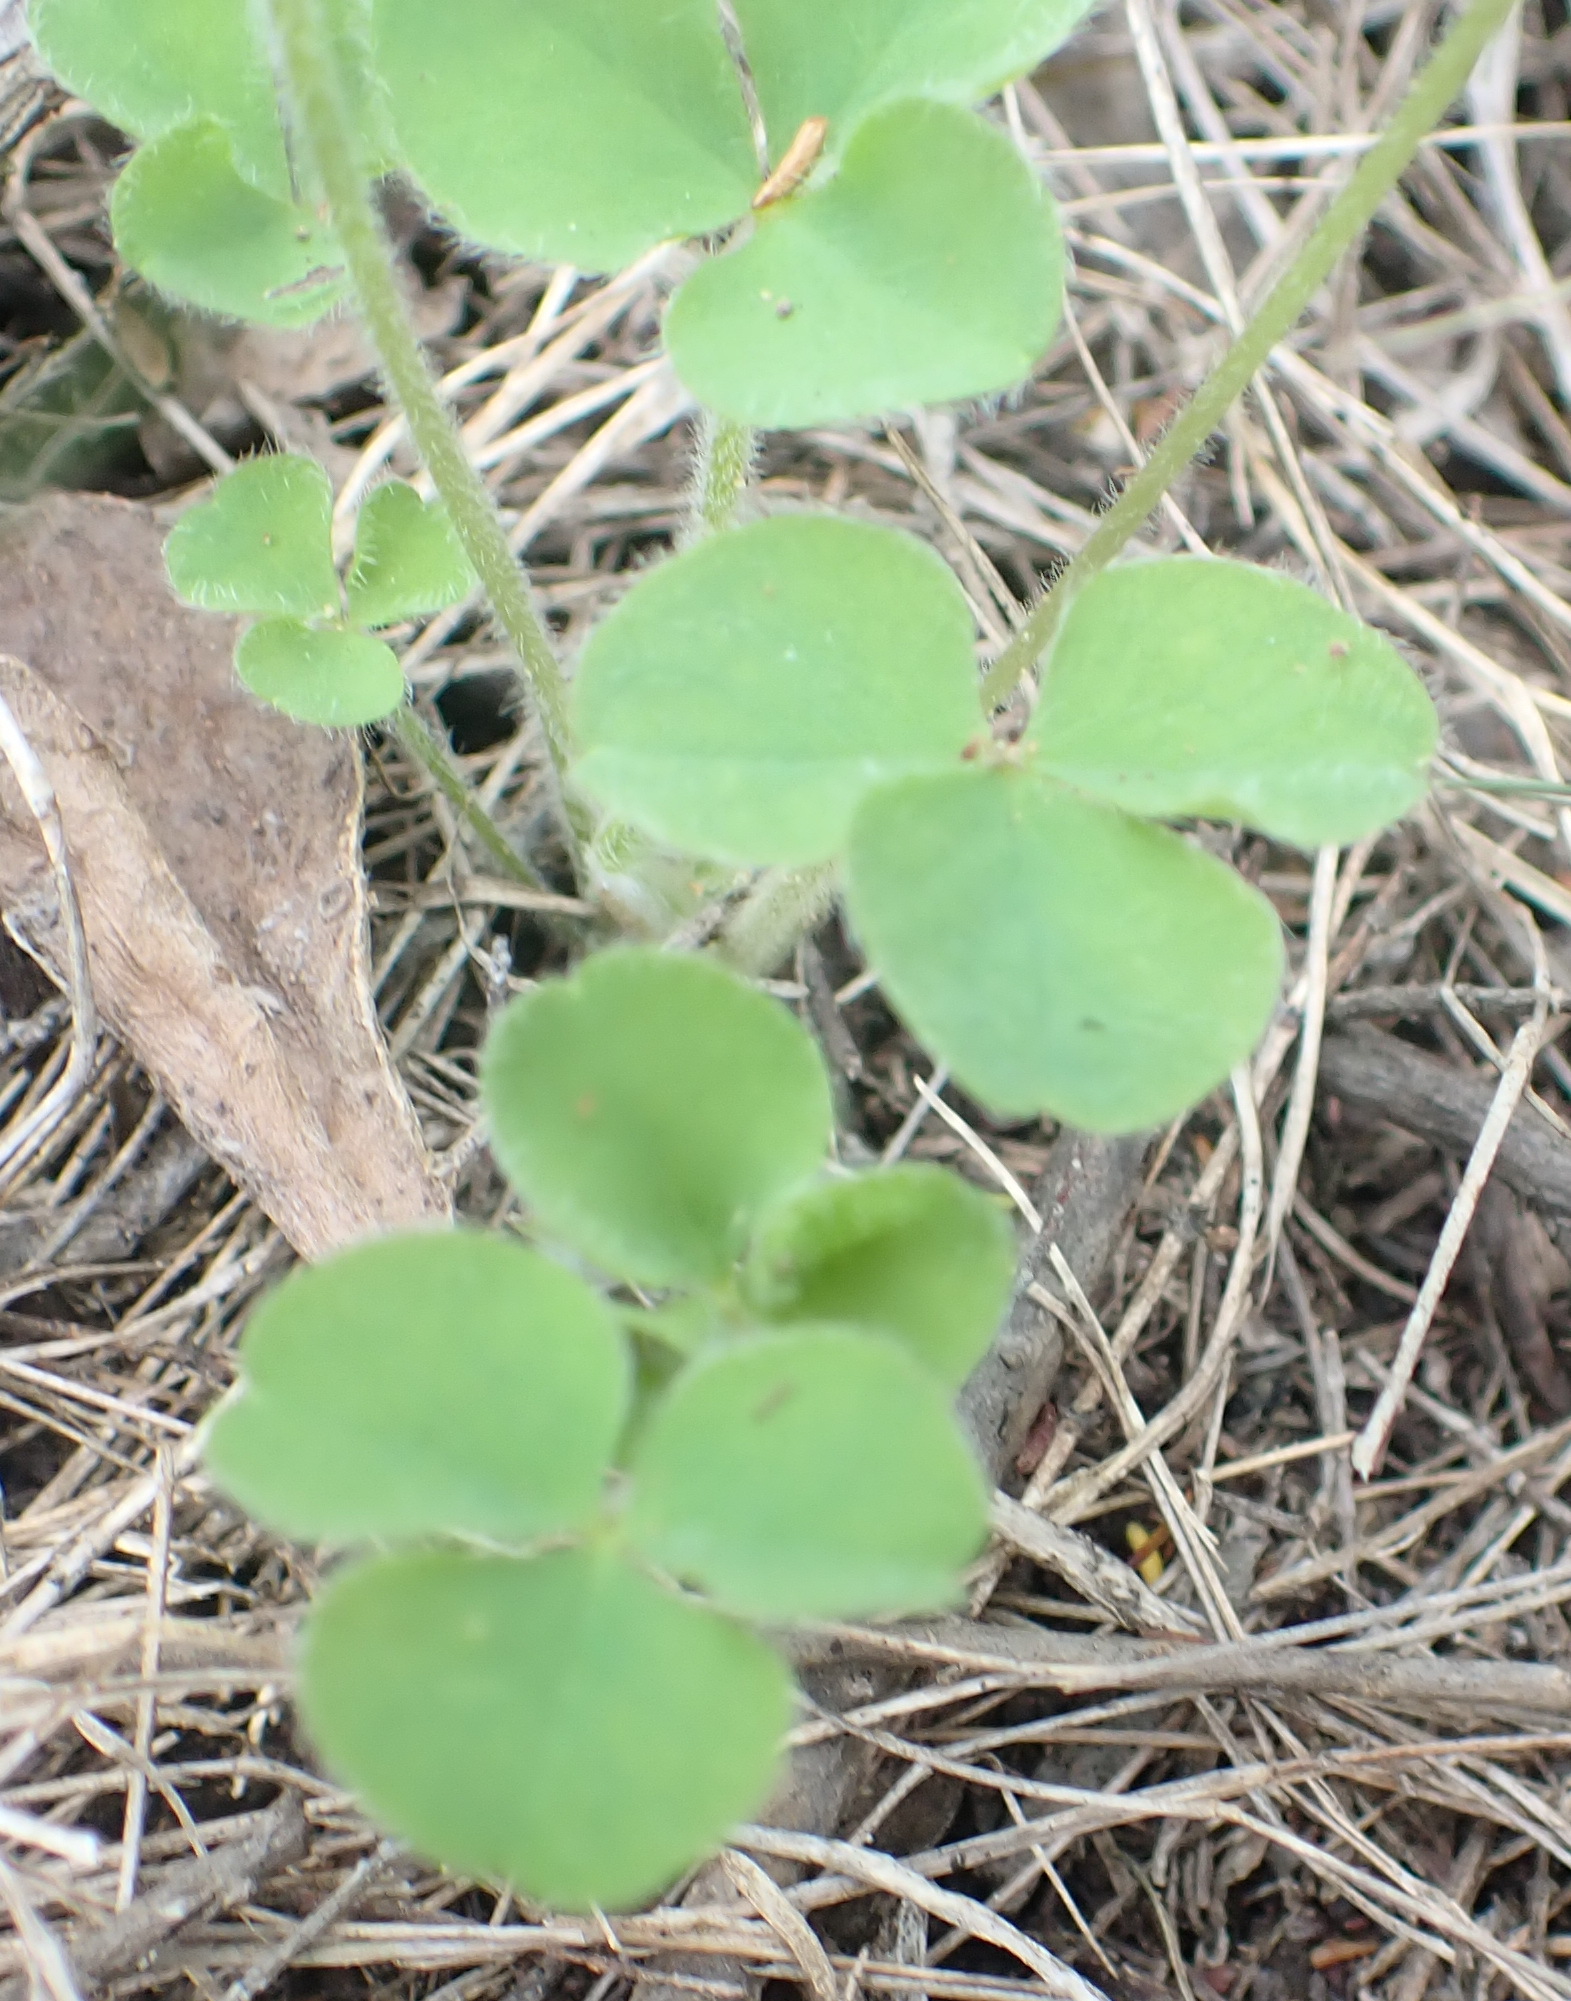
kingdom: Plantae
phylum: Tracheophyta
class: Magnoliopsida
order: Oxalidales
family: Oxalidaceae
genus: Oxalis
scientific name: Oxalis imbricata
